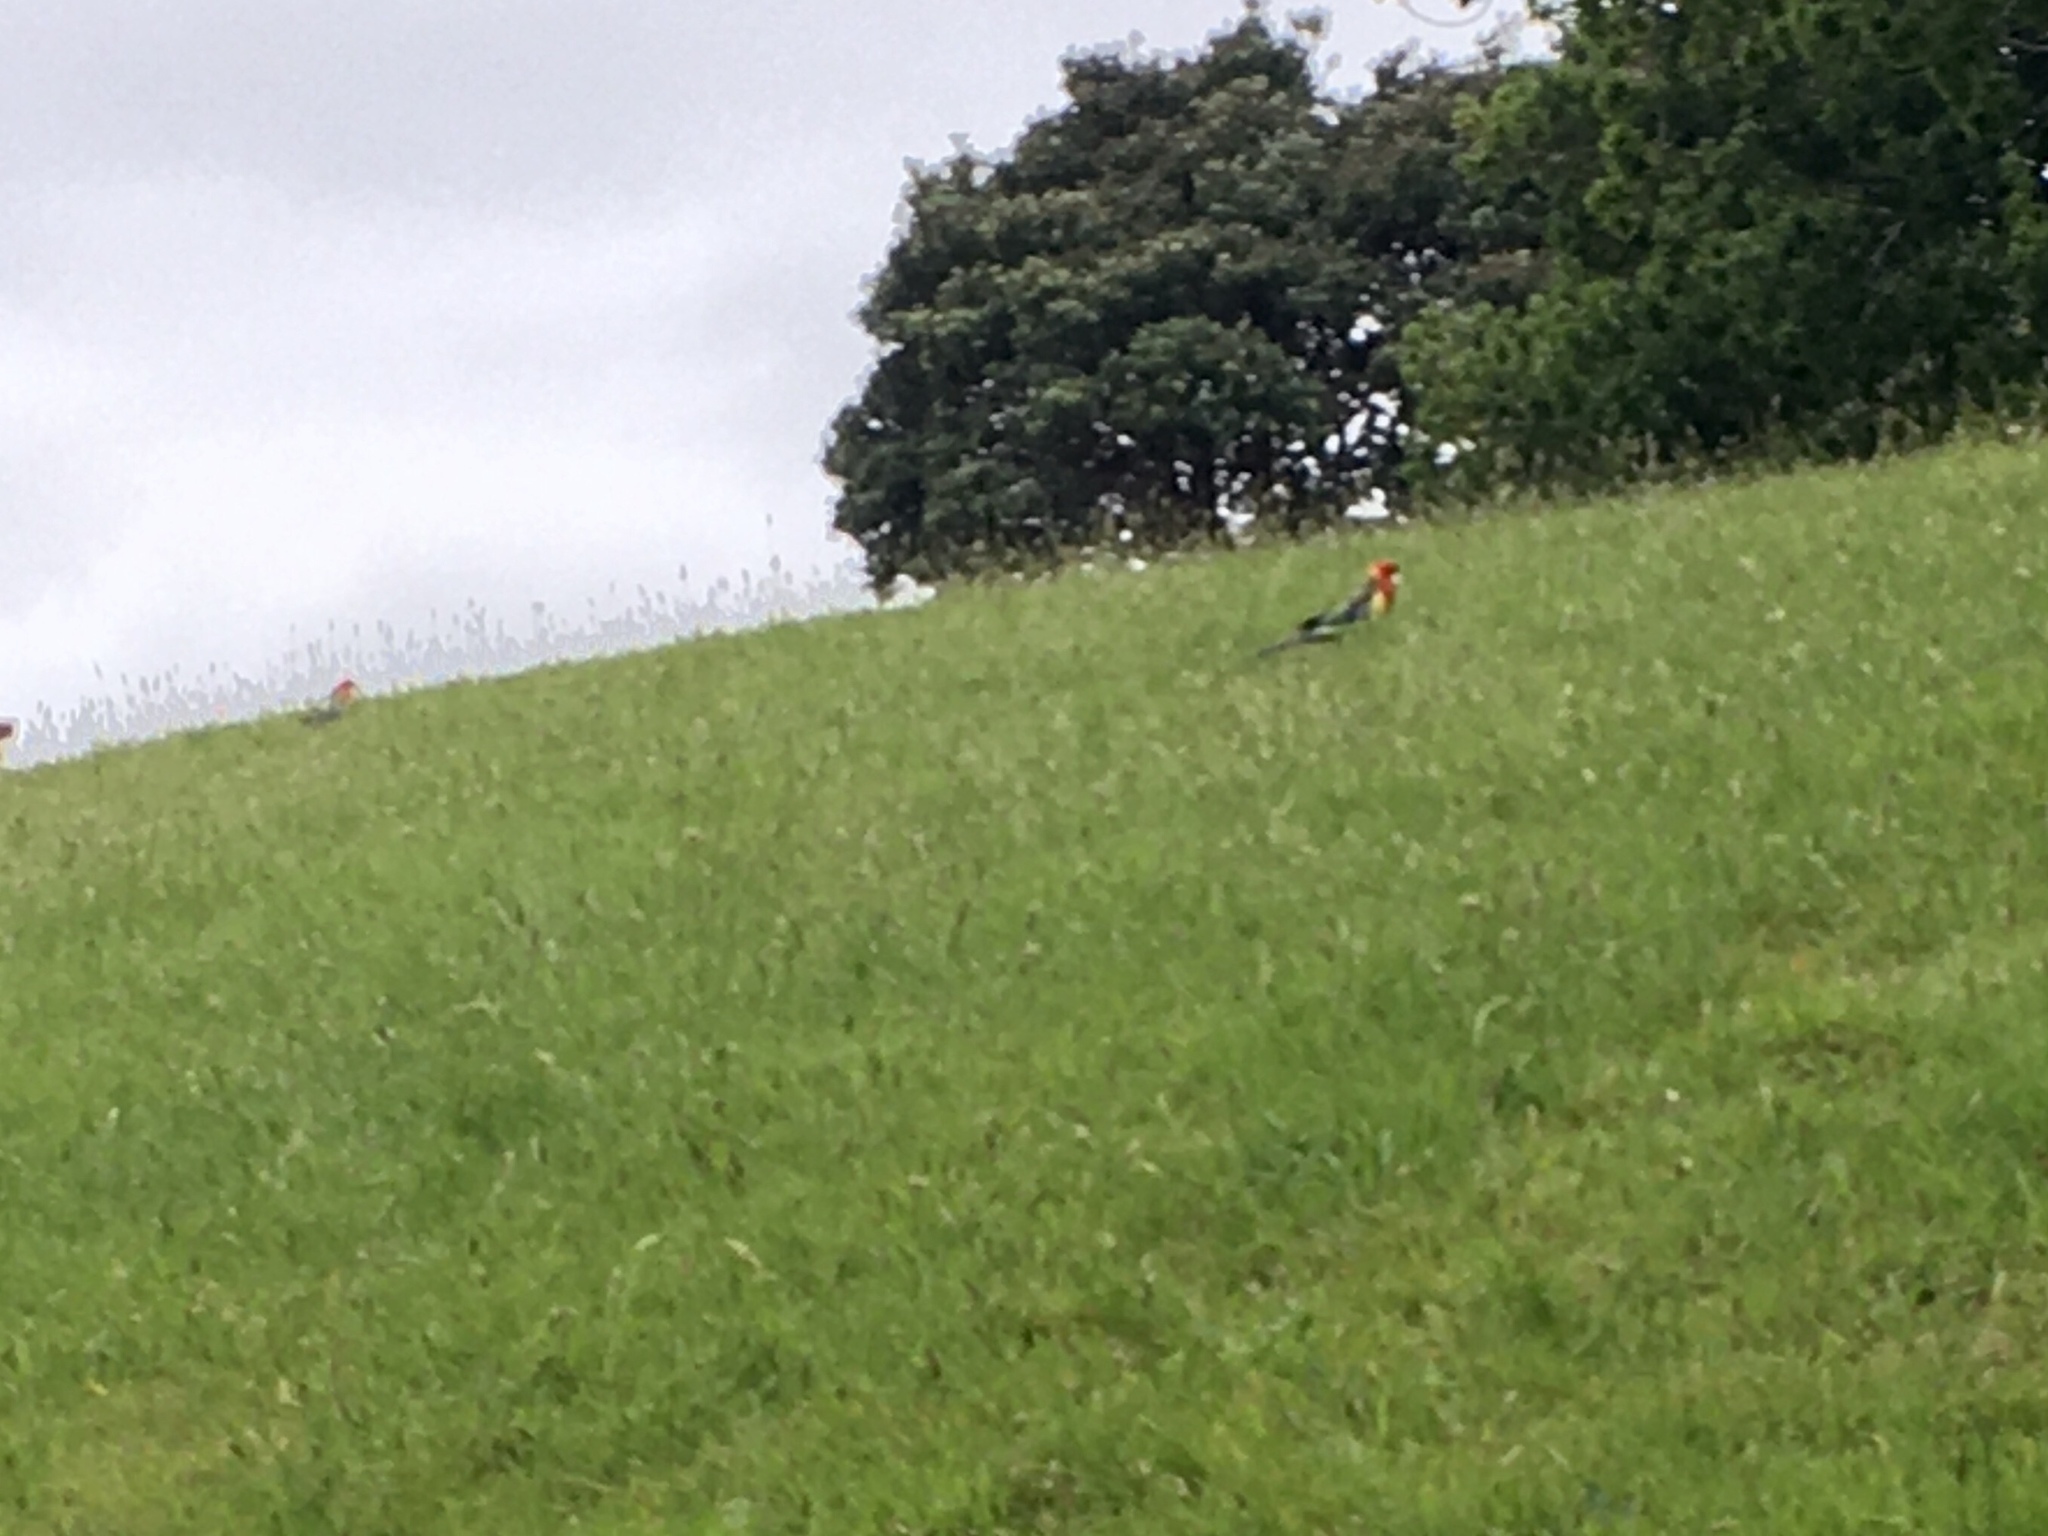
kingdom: Animalia
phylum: Chordata
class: Aves
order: Psittaciformes
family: Psittacidae
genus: Platycercus
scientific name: Platycercus eximius
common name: Eastern rosella
